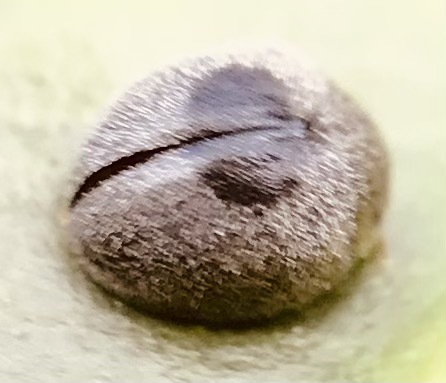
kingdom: Animalia
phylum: Arthropoda
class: Insecta
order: Coleoptera
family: Coccinellidae
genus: Azya
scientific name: Azya
